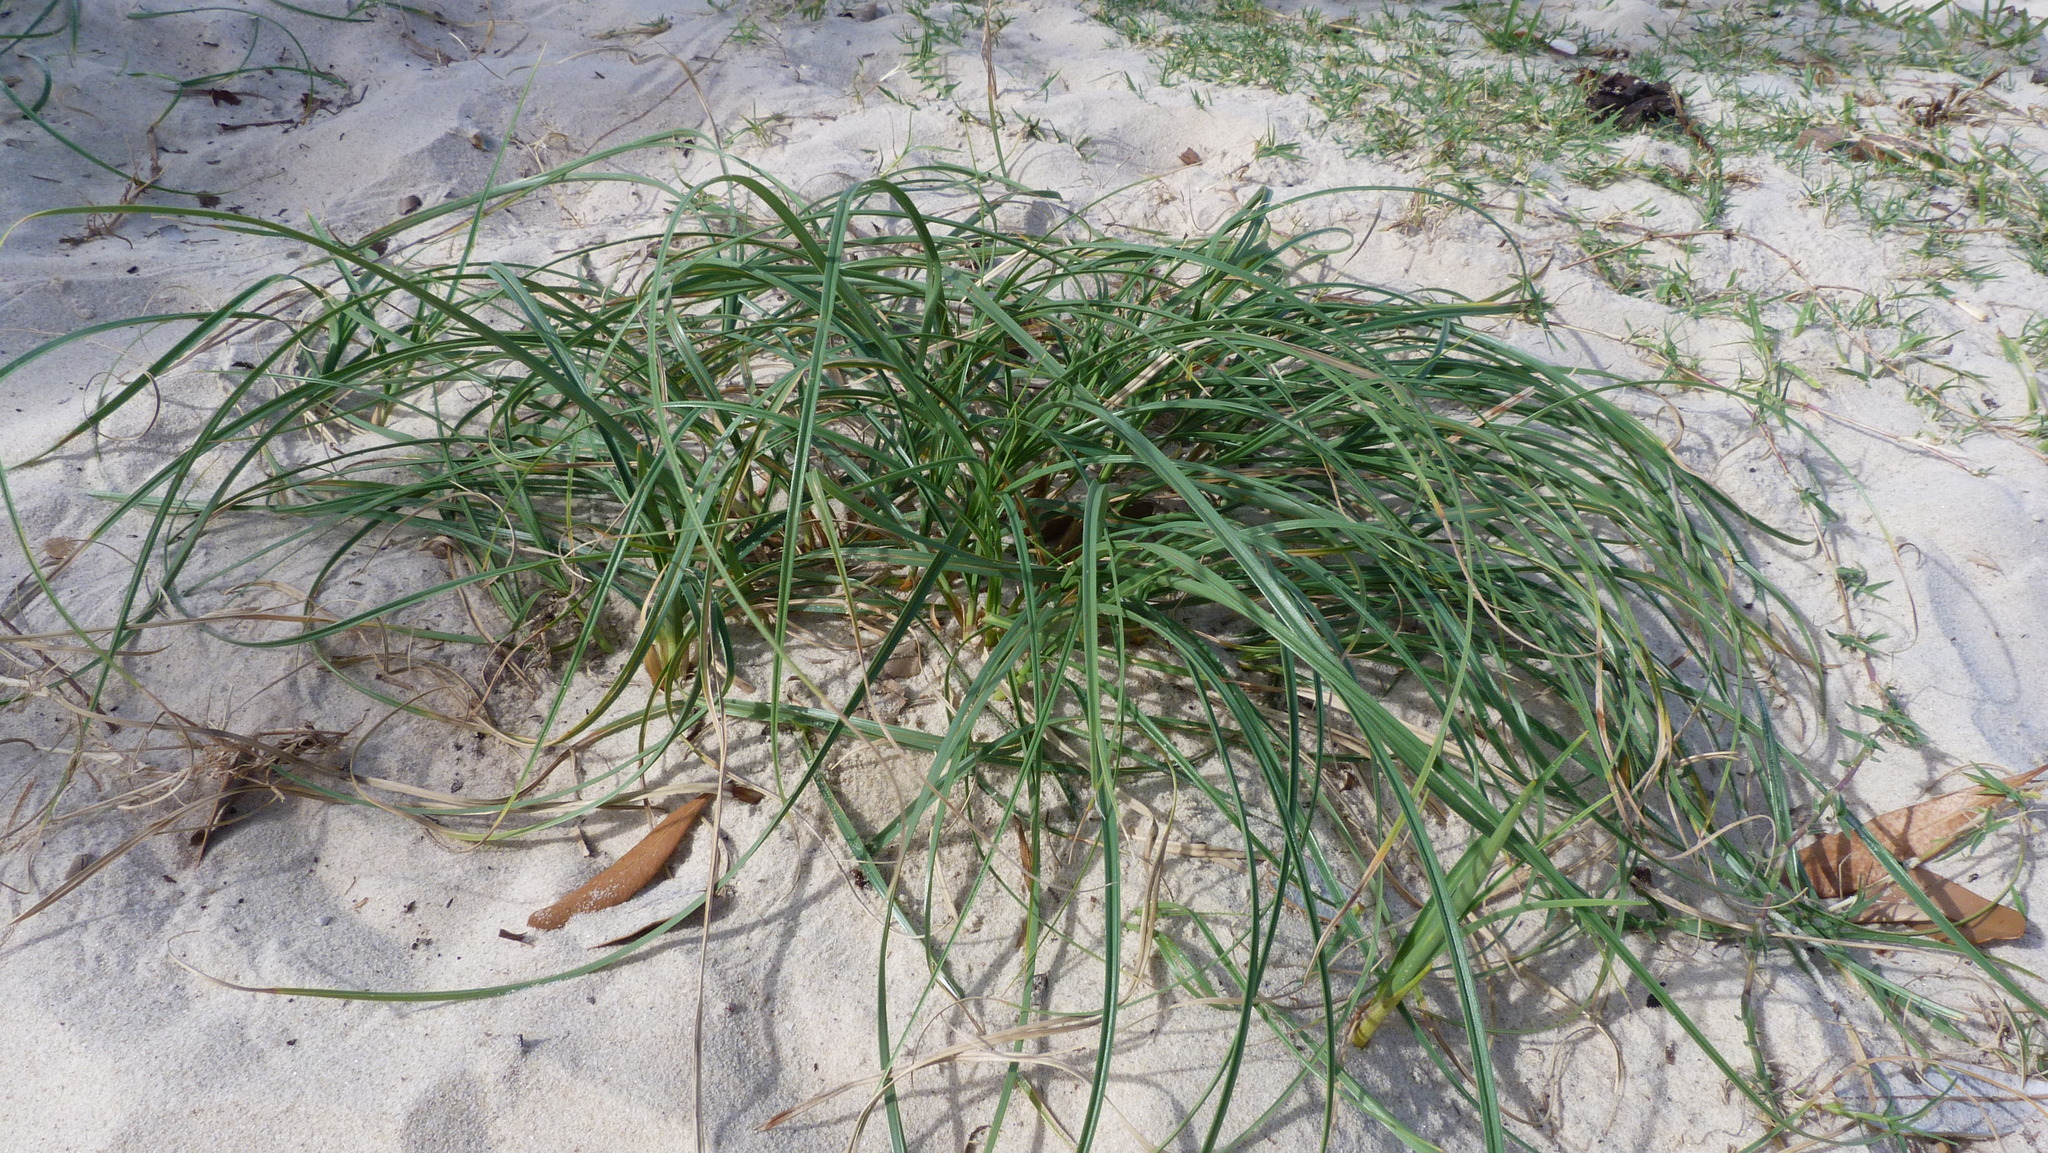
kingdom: Plantae
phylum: Tracheophyta
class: Liliopsida
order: Poales
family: Cyperaceae
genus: Carex
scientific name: Carex pumila
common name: Dwarf sedge
